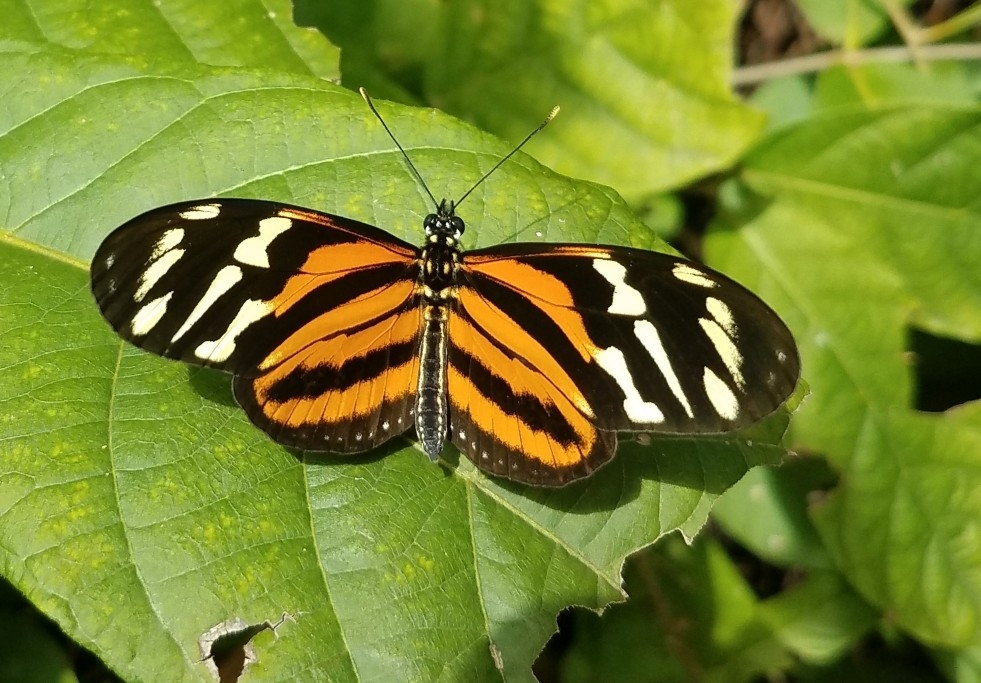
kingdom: Animalia
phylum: Arthropoda
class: Insecta
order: Lepidoptera
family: Nymphalidae
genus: Lycorea
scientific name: Lycorea eva
